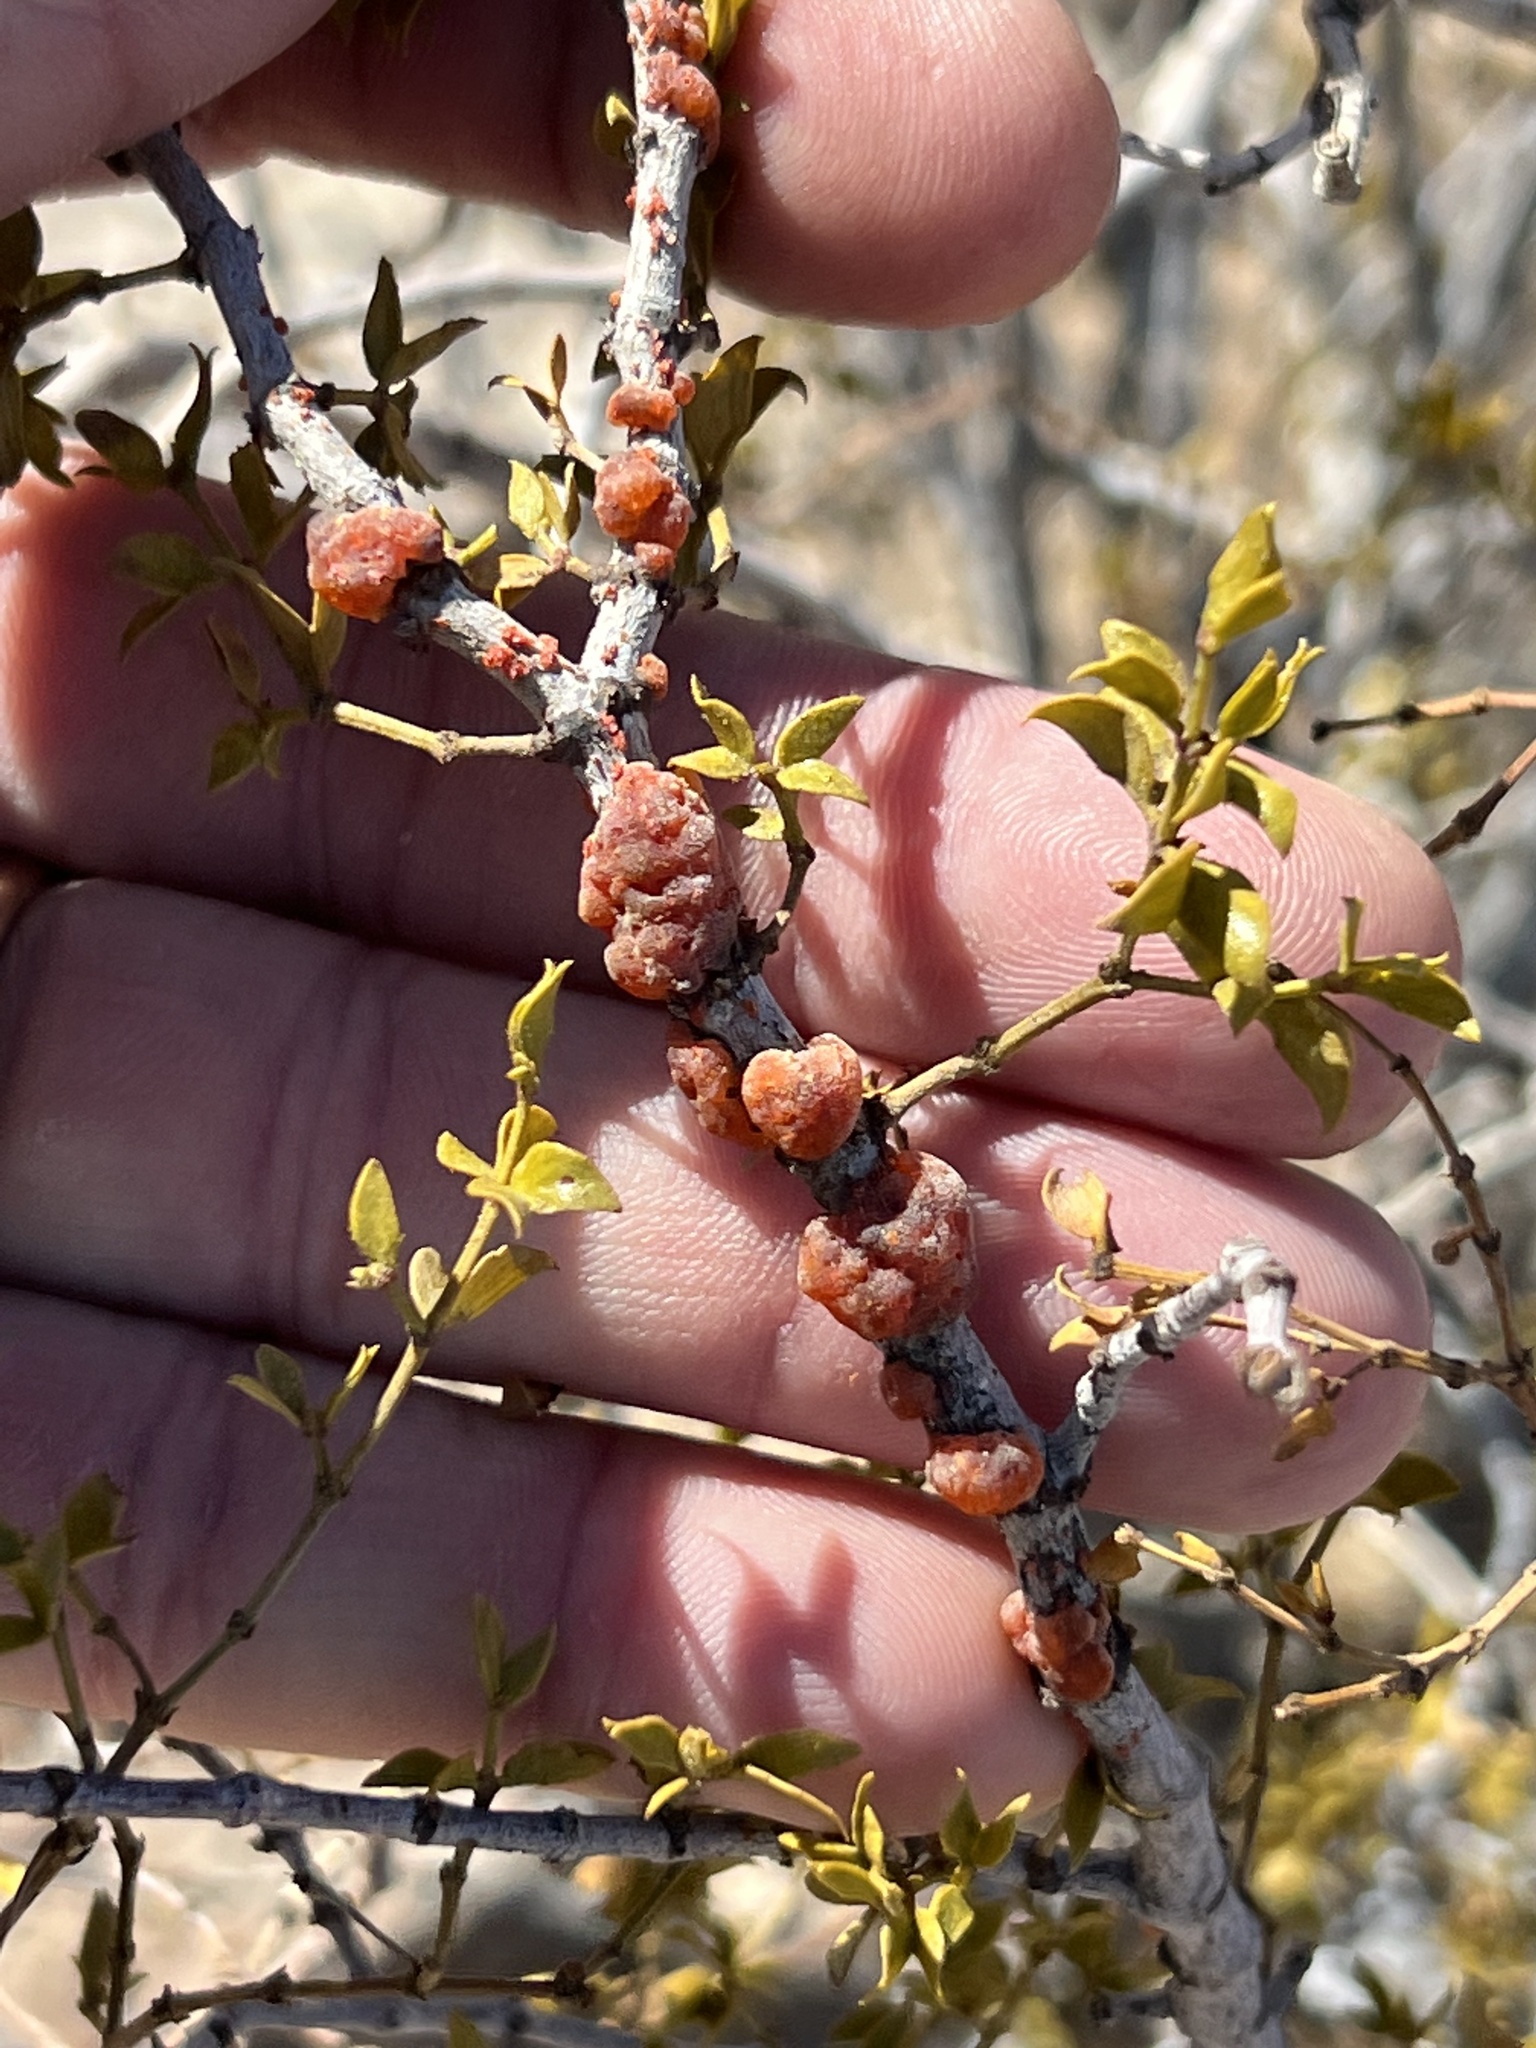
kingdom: Animalia
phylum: Arthropoda
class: Insecta
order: Hemiptera
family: Kerriidae
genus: Tachardiella
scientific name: Tachardiella larreae
